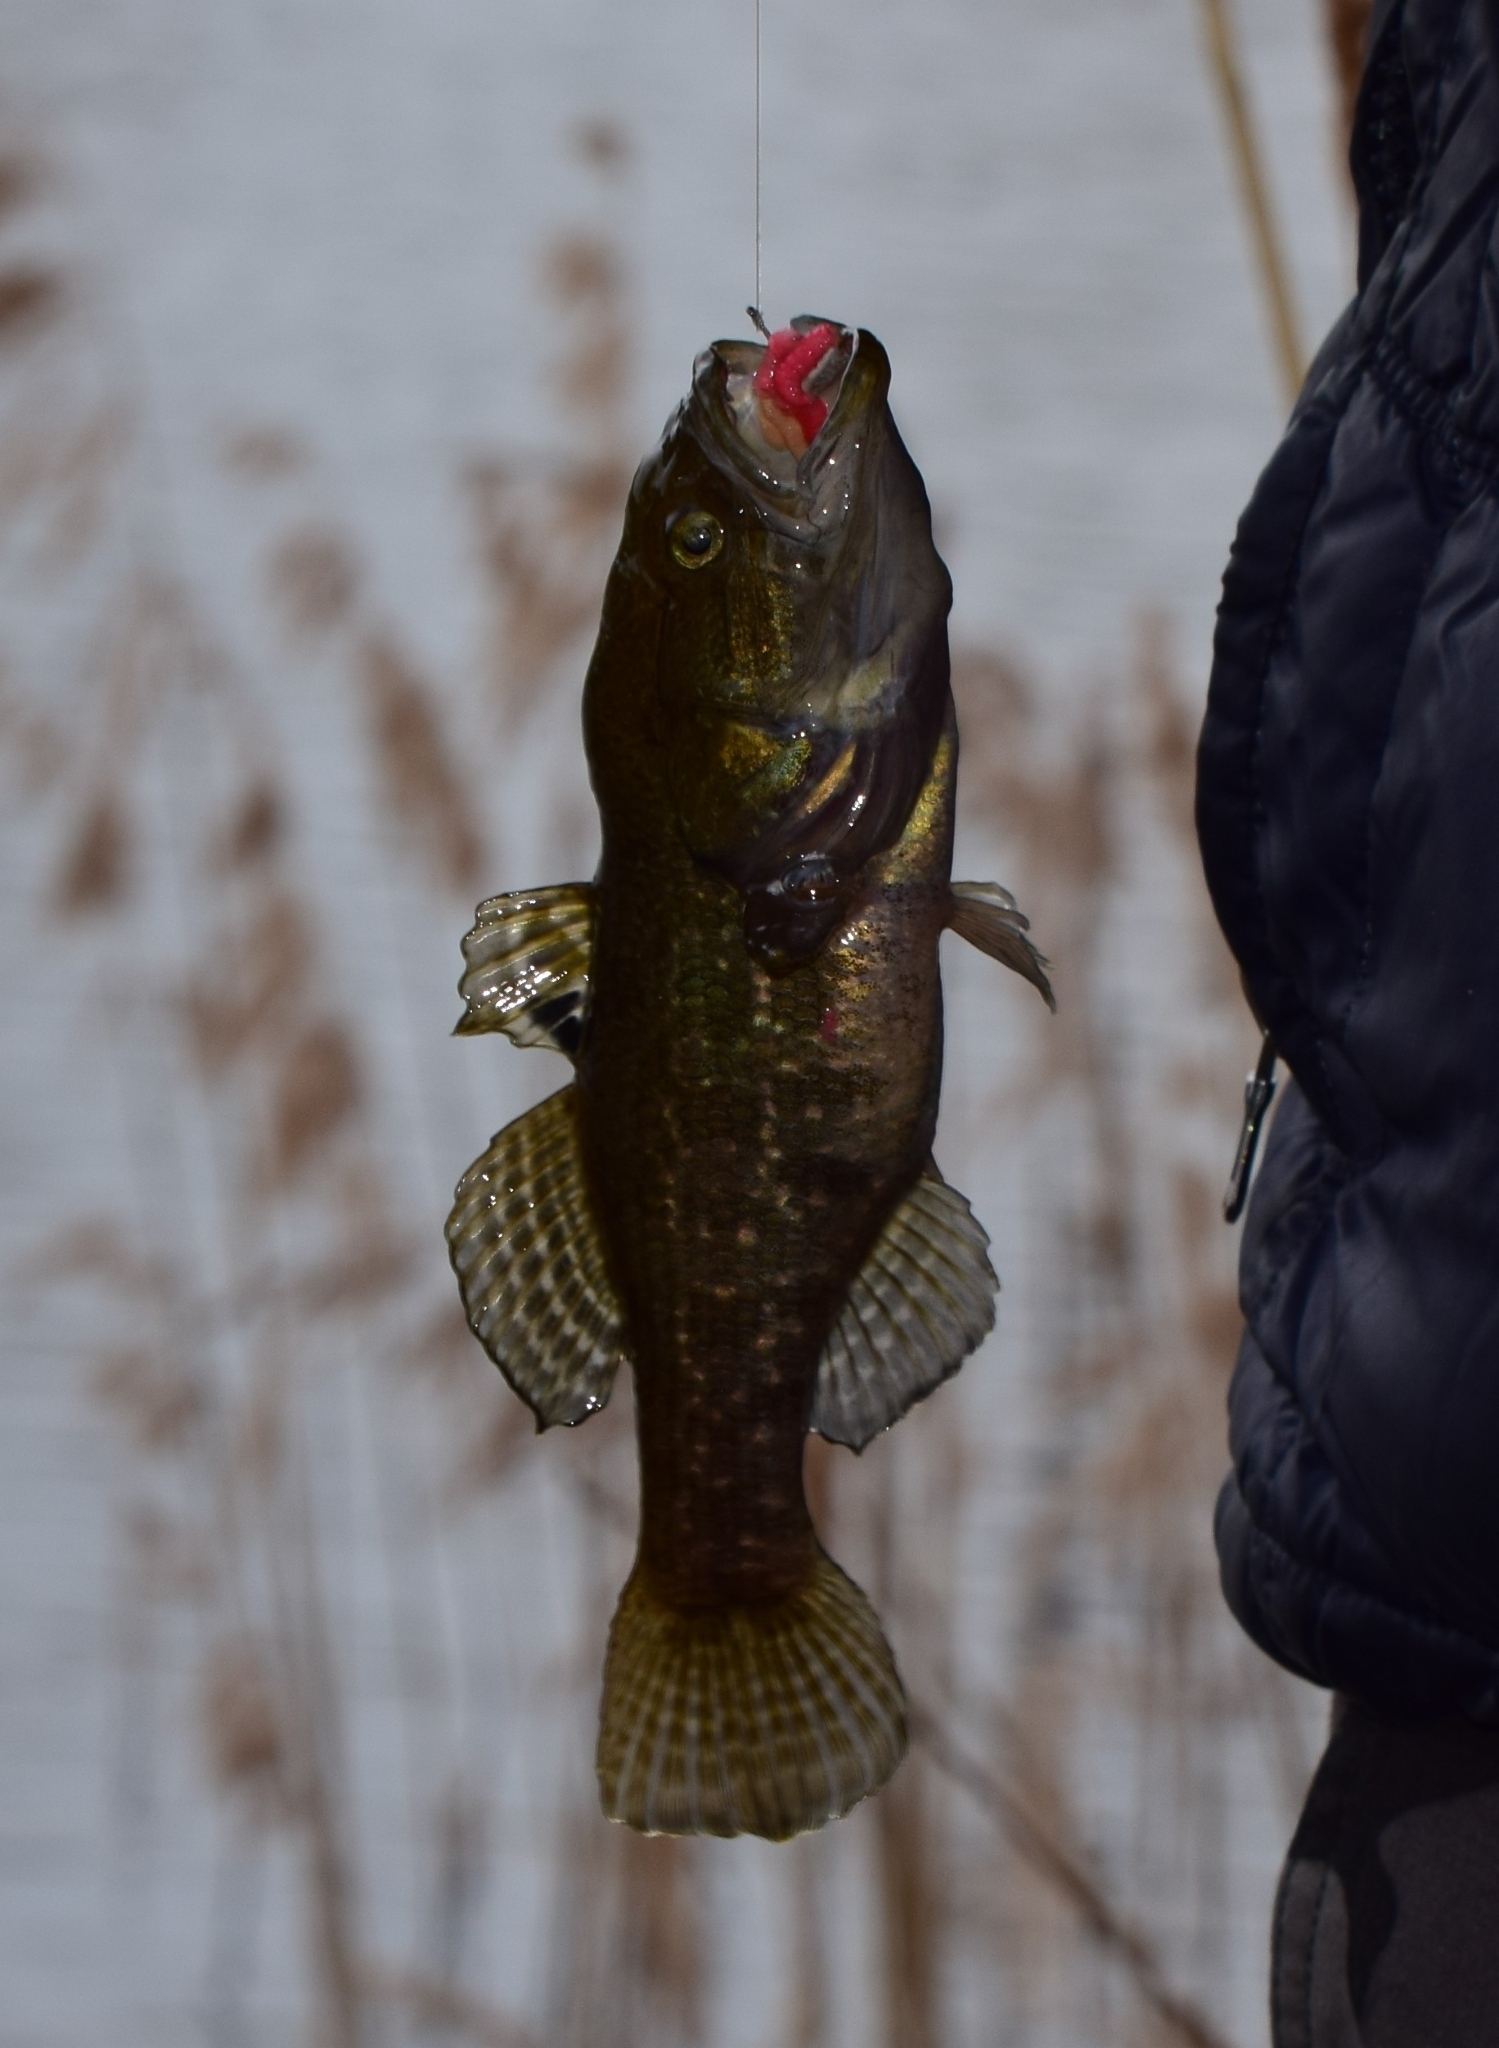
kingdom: Animalia
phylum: Chordata
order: Perciformes
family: Odontobutidae
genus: Perccottus
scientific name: Perccottus glenii
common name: Amur sleeper
